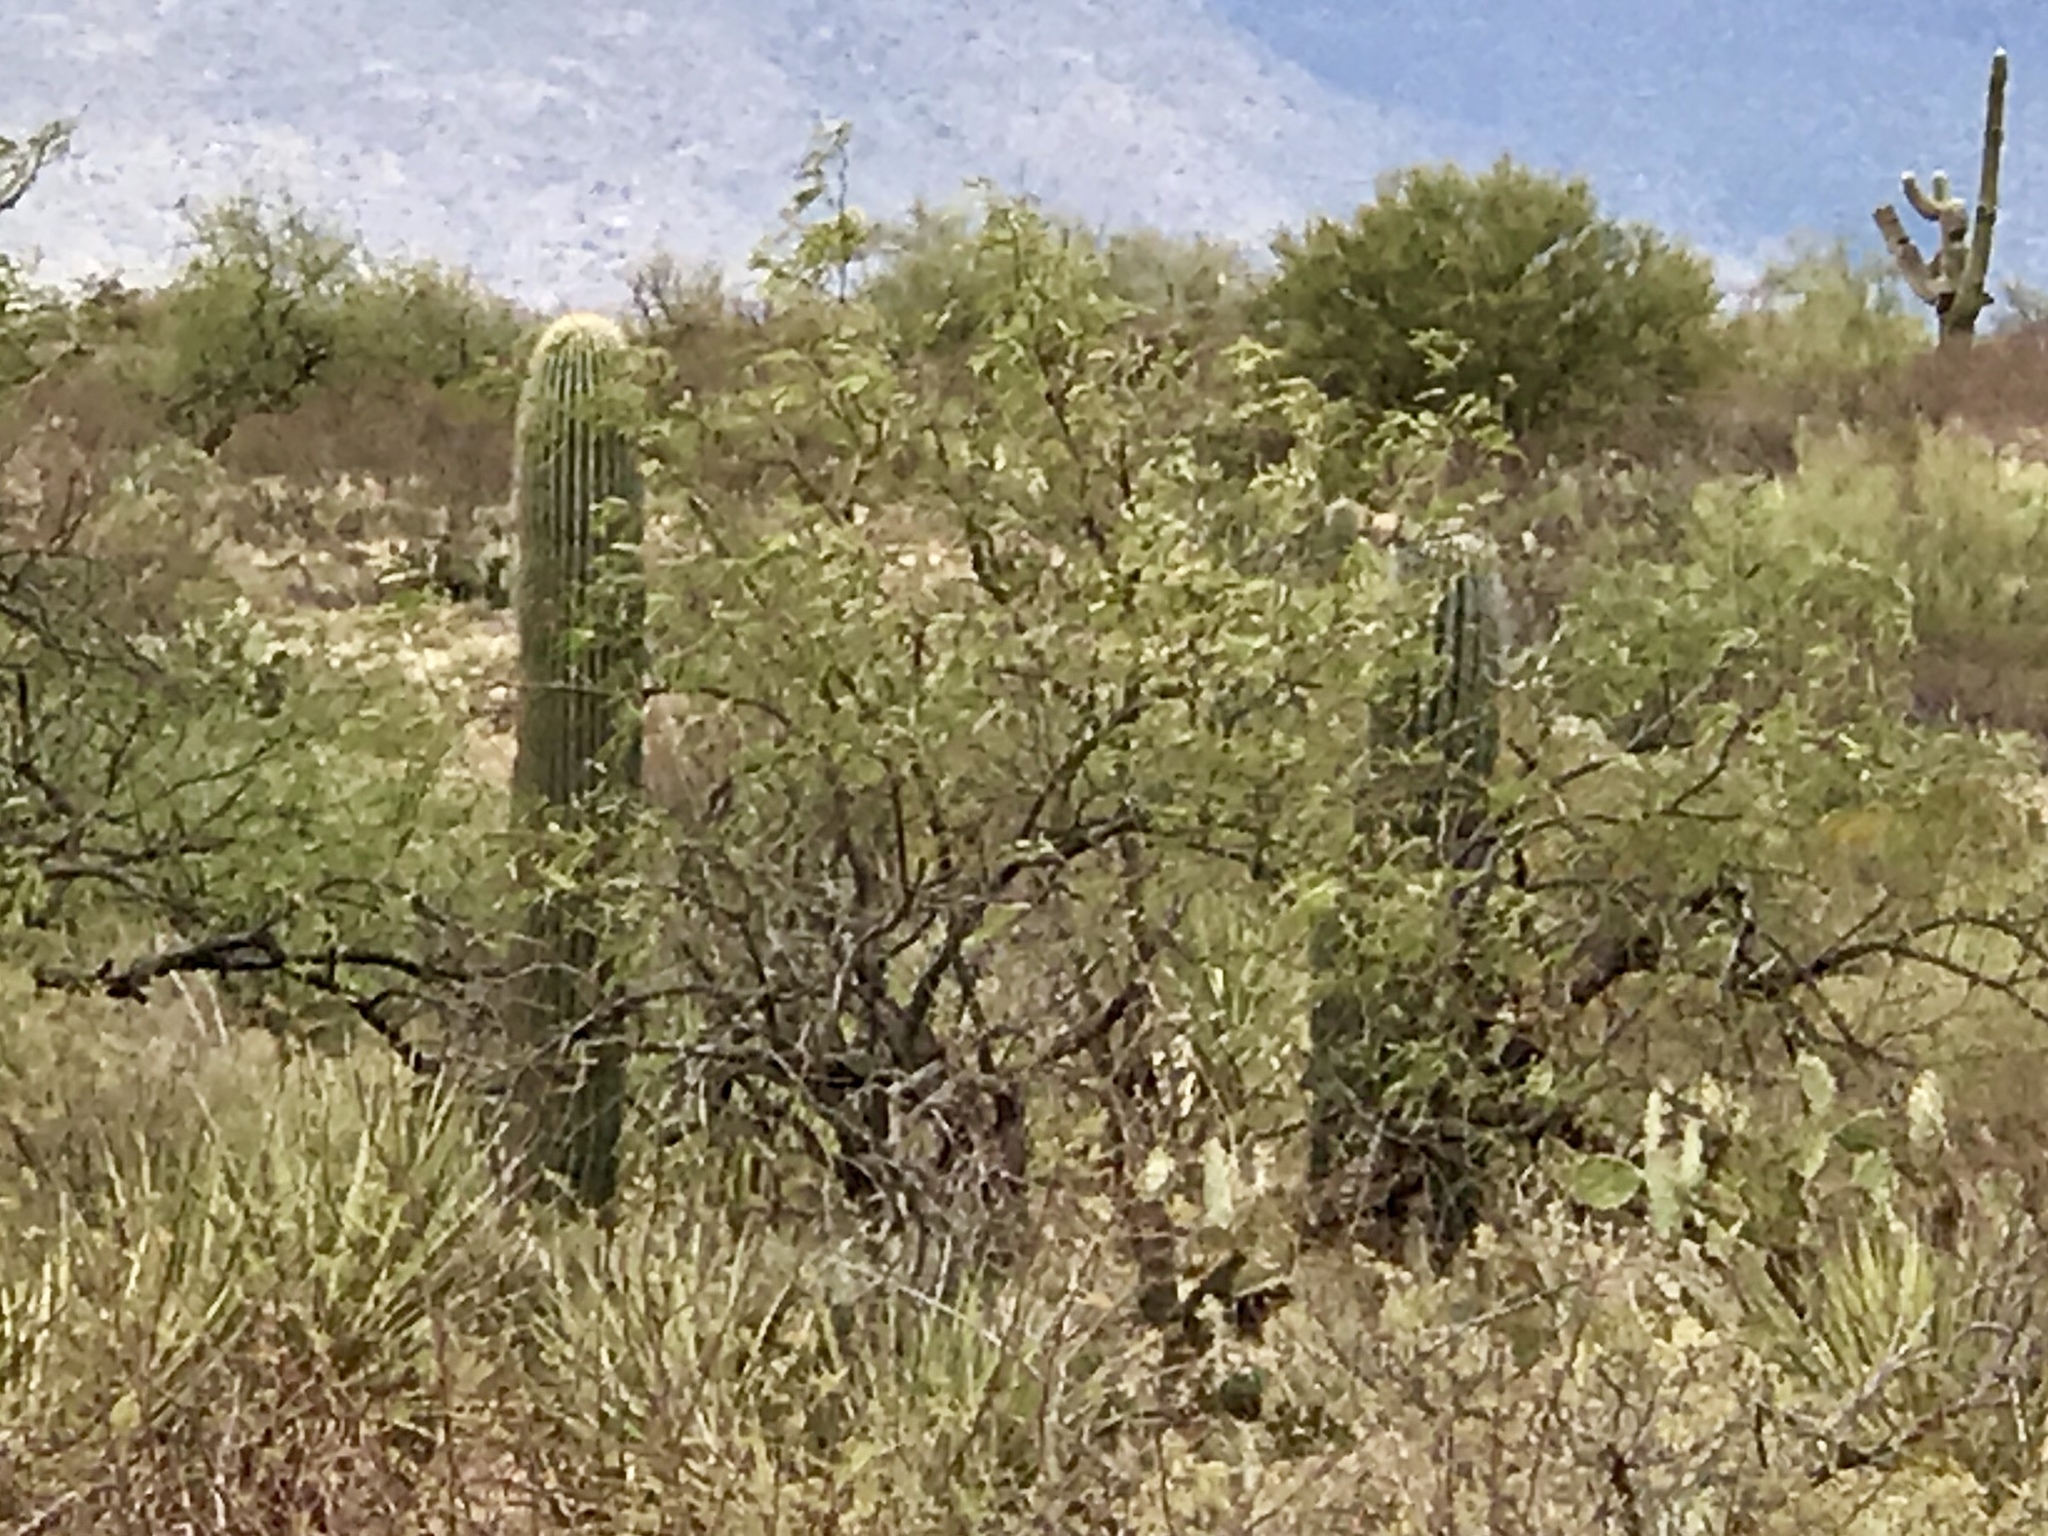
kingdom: Plantae
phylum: Tracheophyta
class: Magnoliopsida
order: Caryophyllales
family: Cactaceae
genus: Carnegiea
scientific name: Carnegiea gigantea
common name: Saguaro
